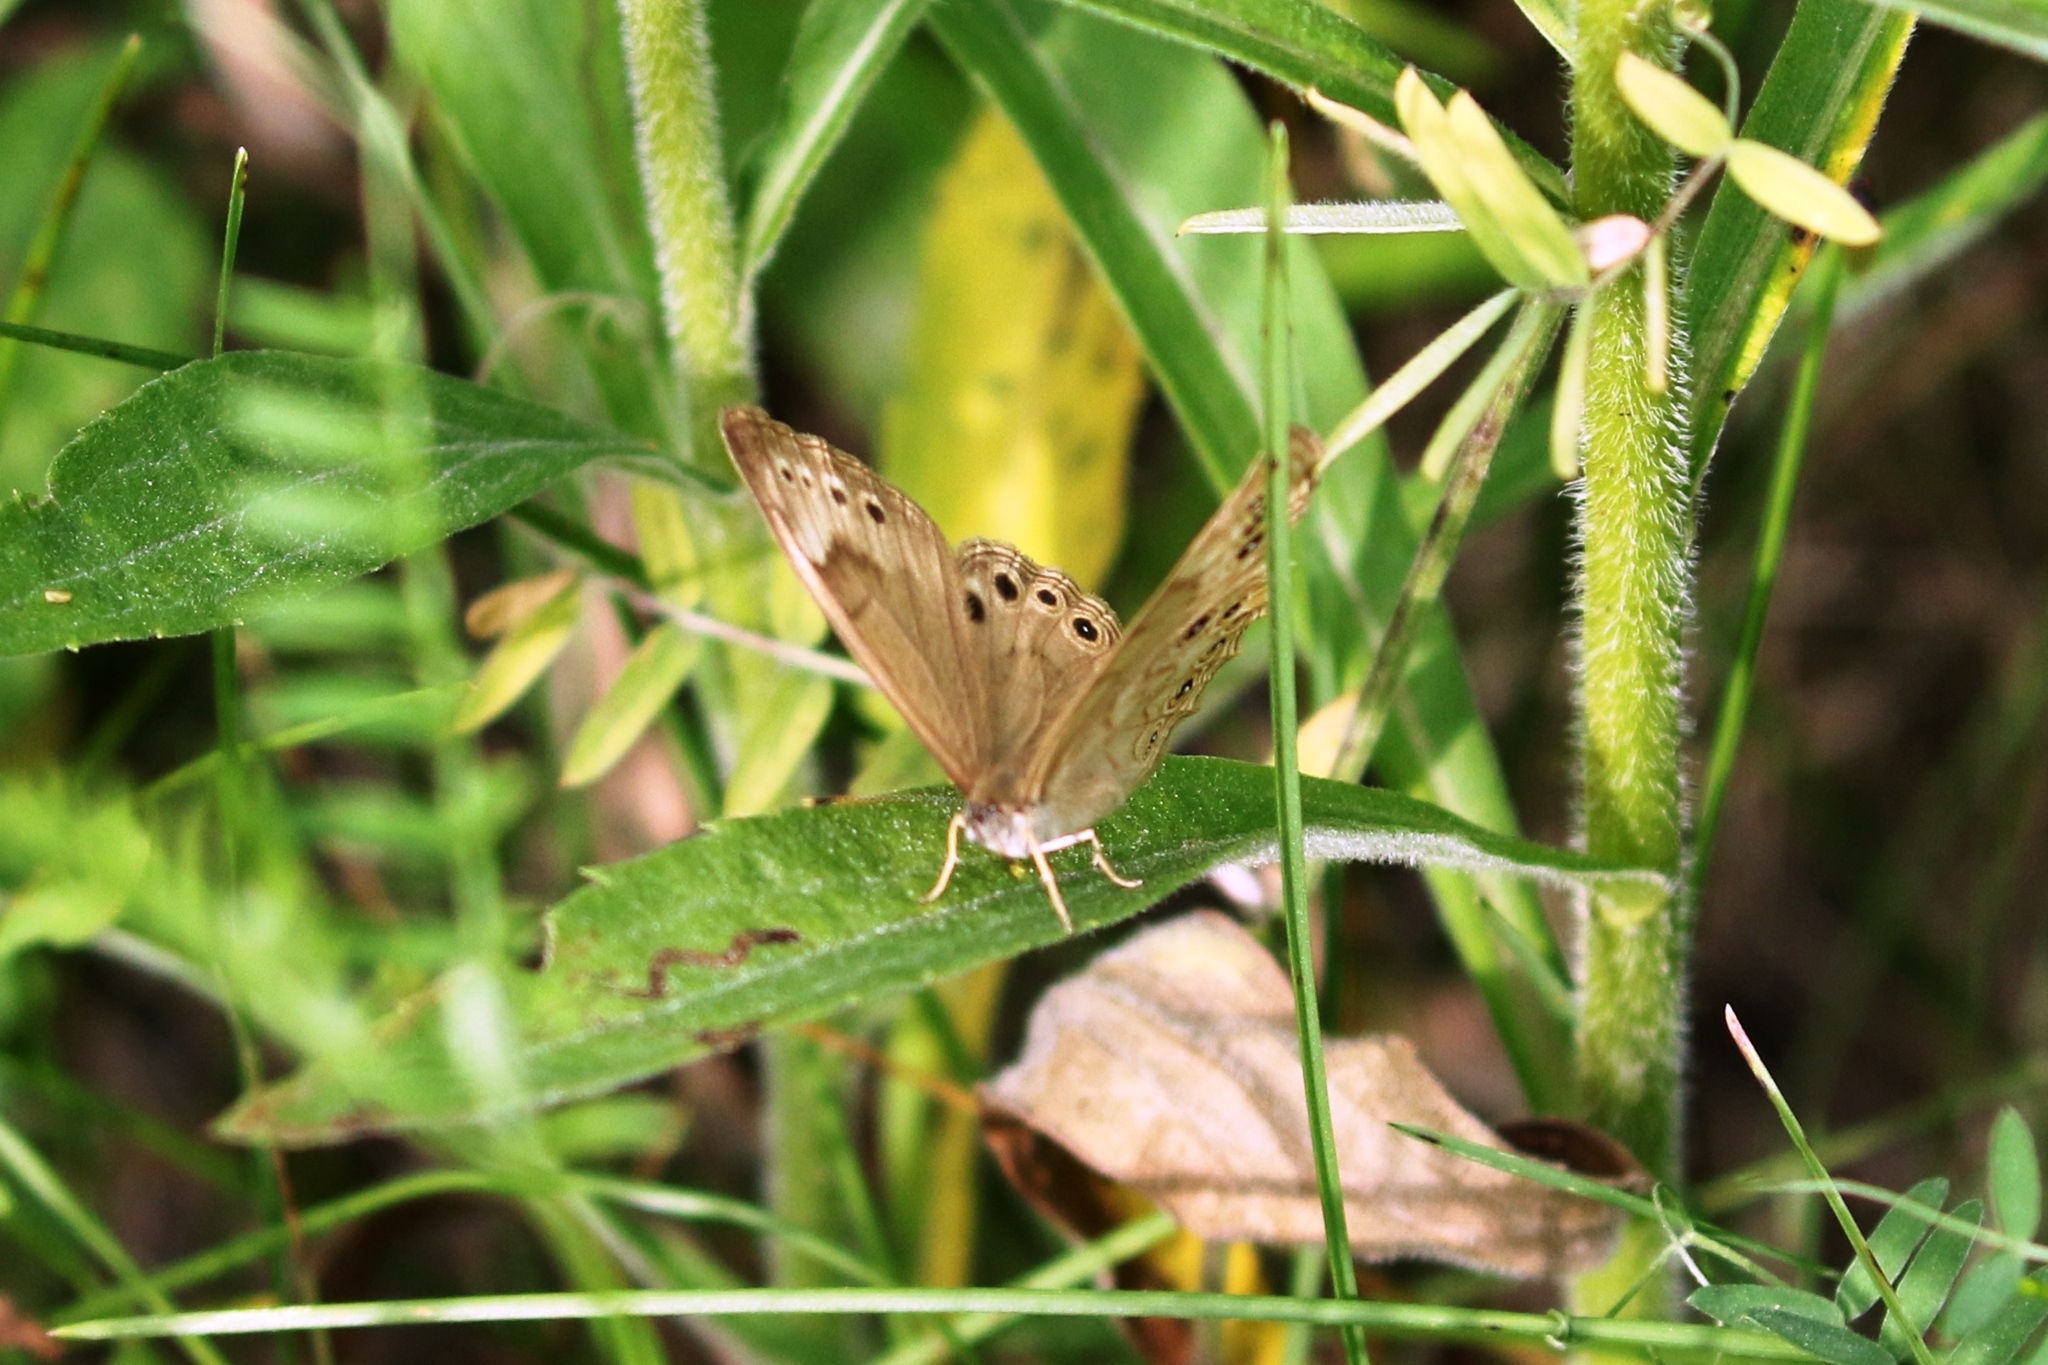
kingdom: Animalia
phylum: Arthropoda
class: Insecta
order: Lepidoptera
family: Nymphalidae
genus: Lethe
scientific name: Lethe eurydice
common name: Eyed brown
